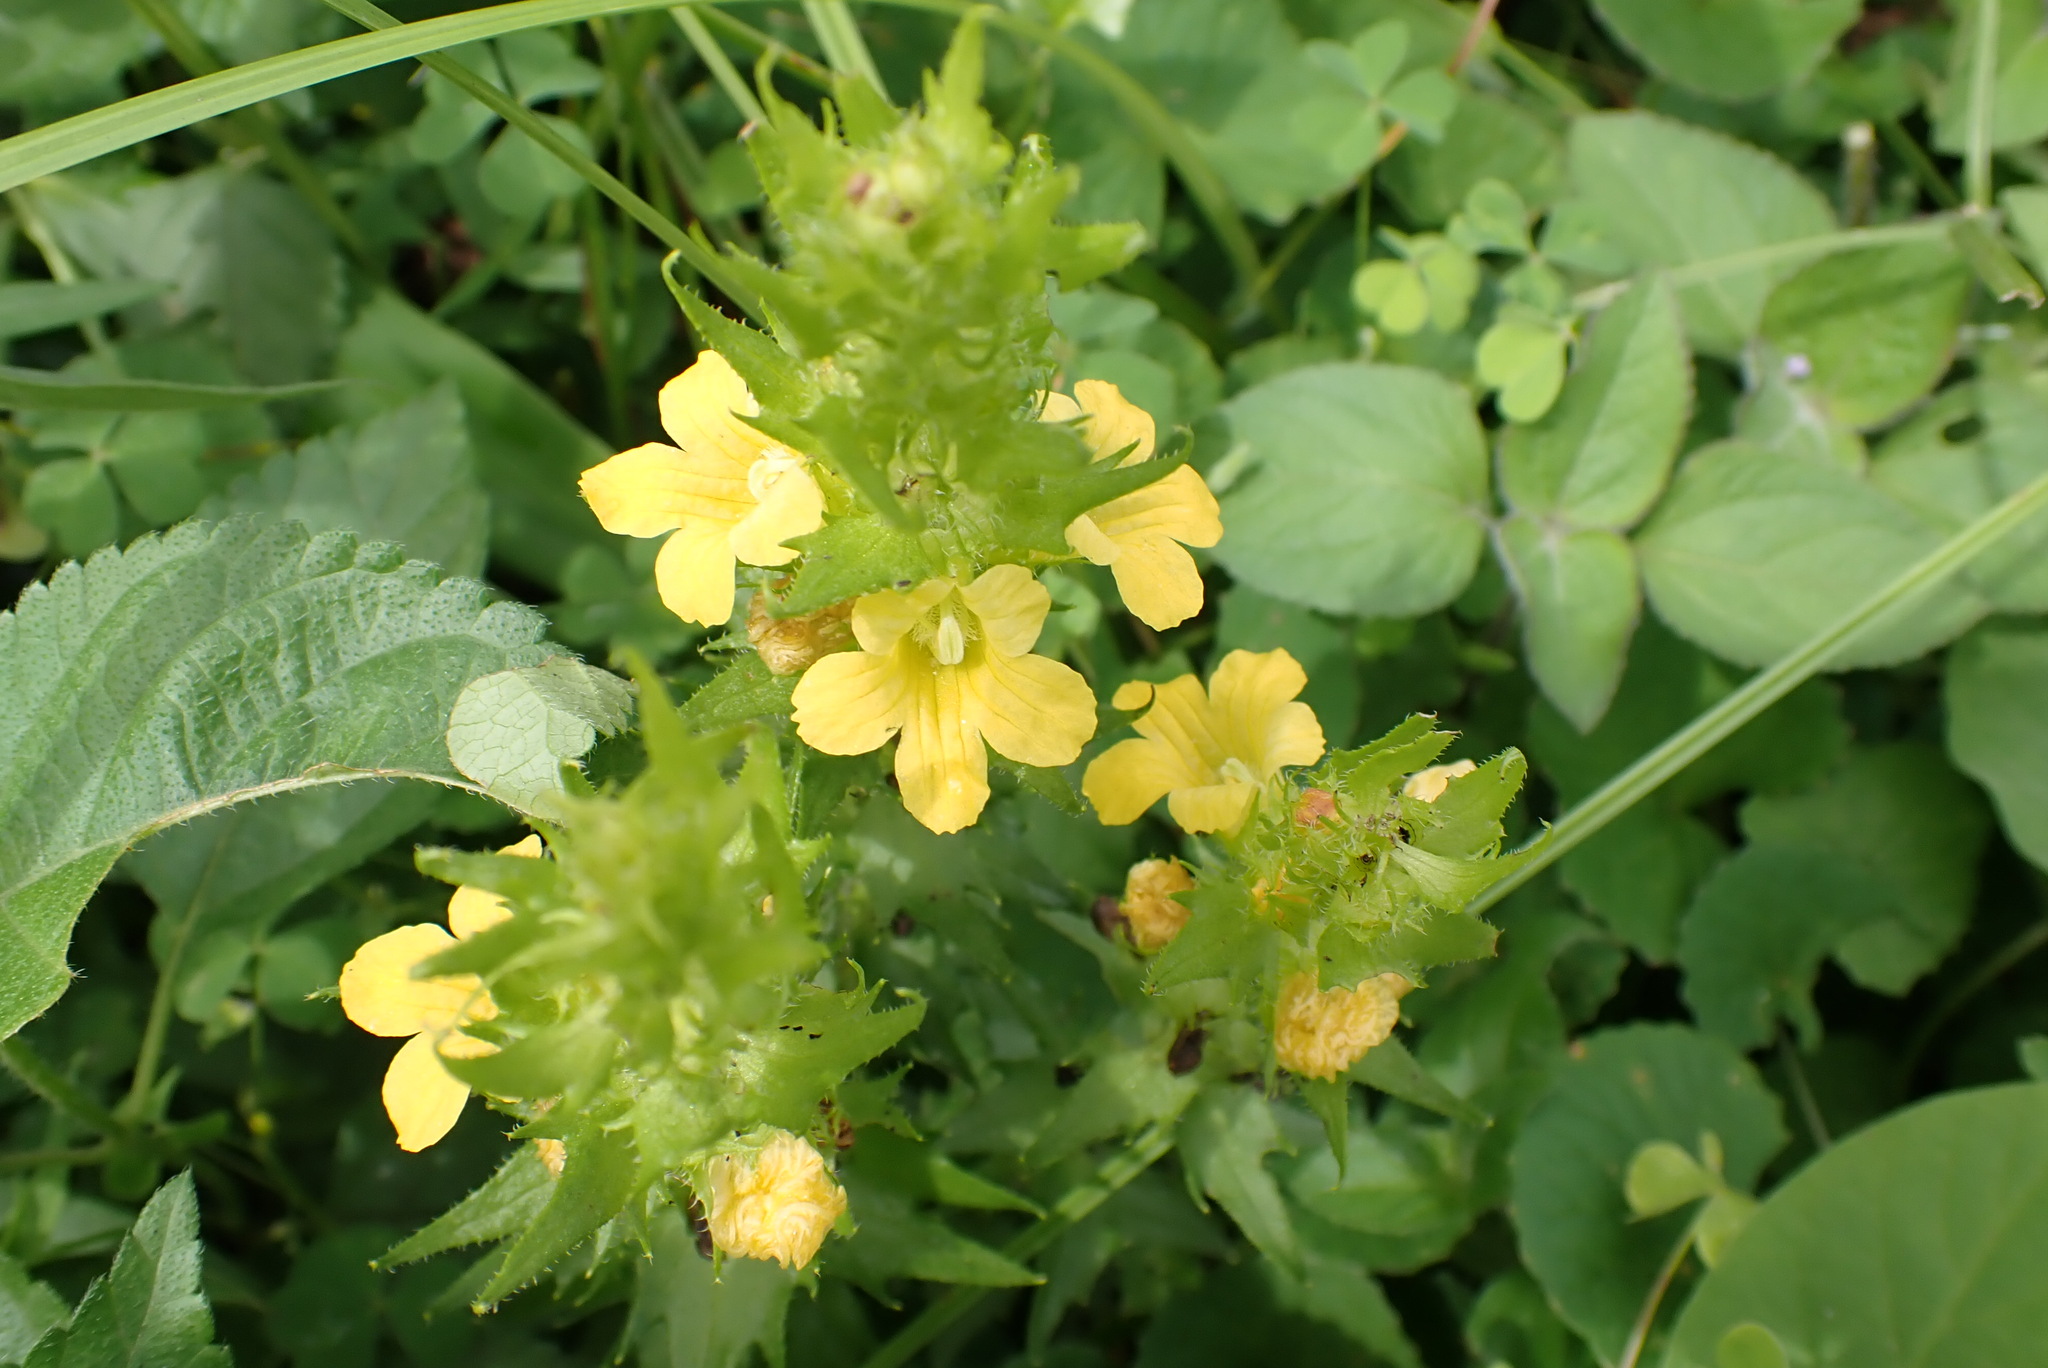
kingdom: Plantae
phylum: Tracheophyta
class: Magnoliopsida
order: Lamiales
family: Orobanchaceae
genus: Alectra
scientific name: Alectra sessiliflora
